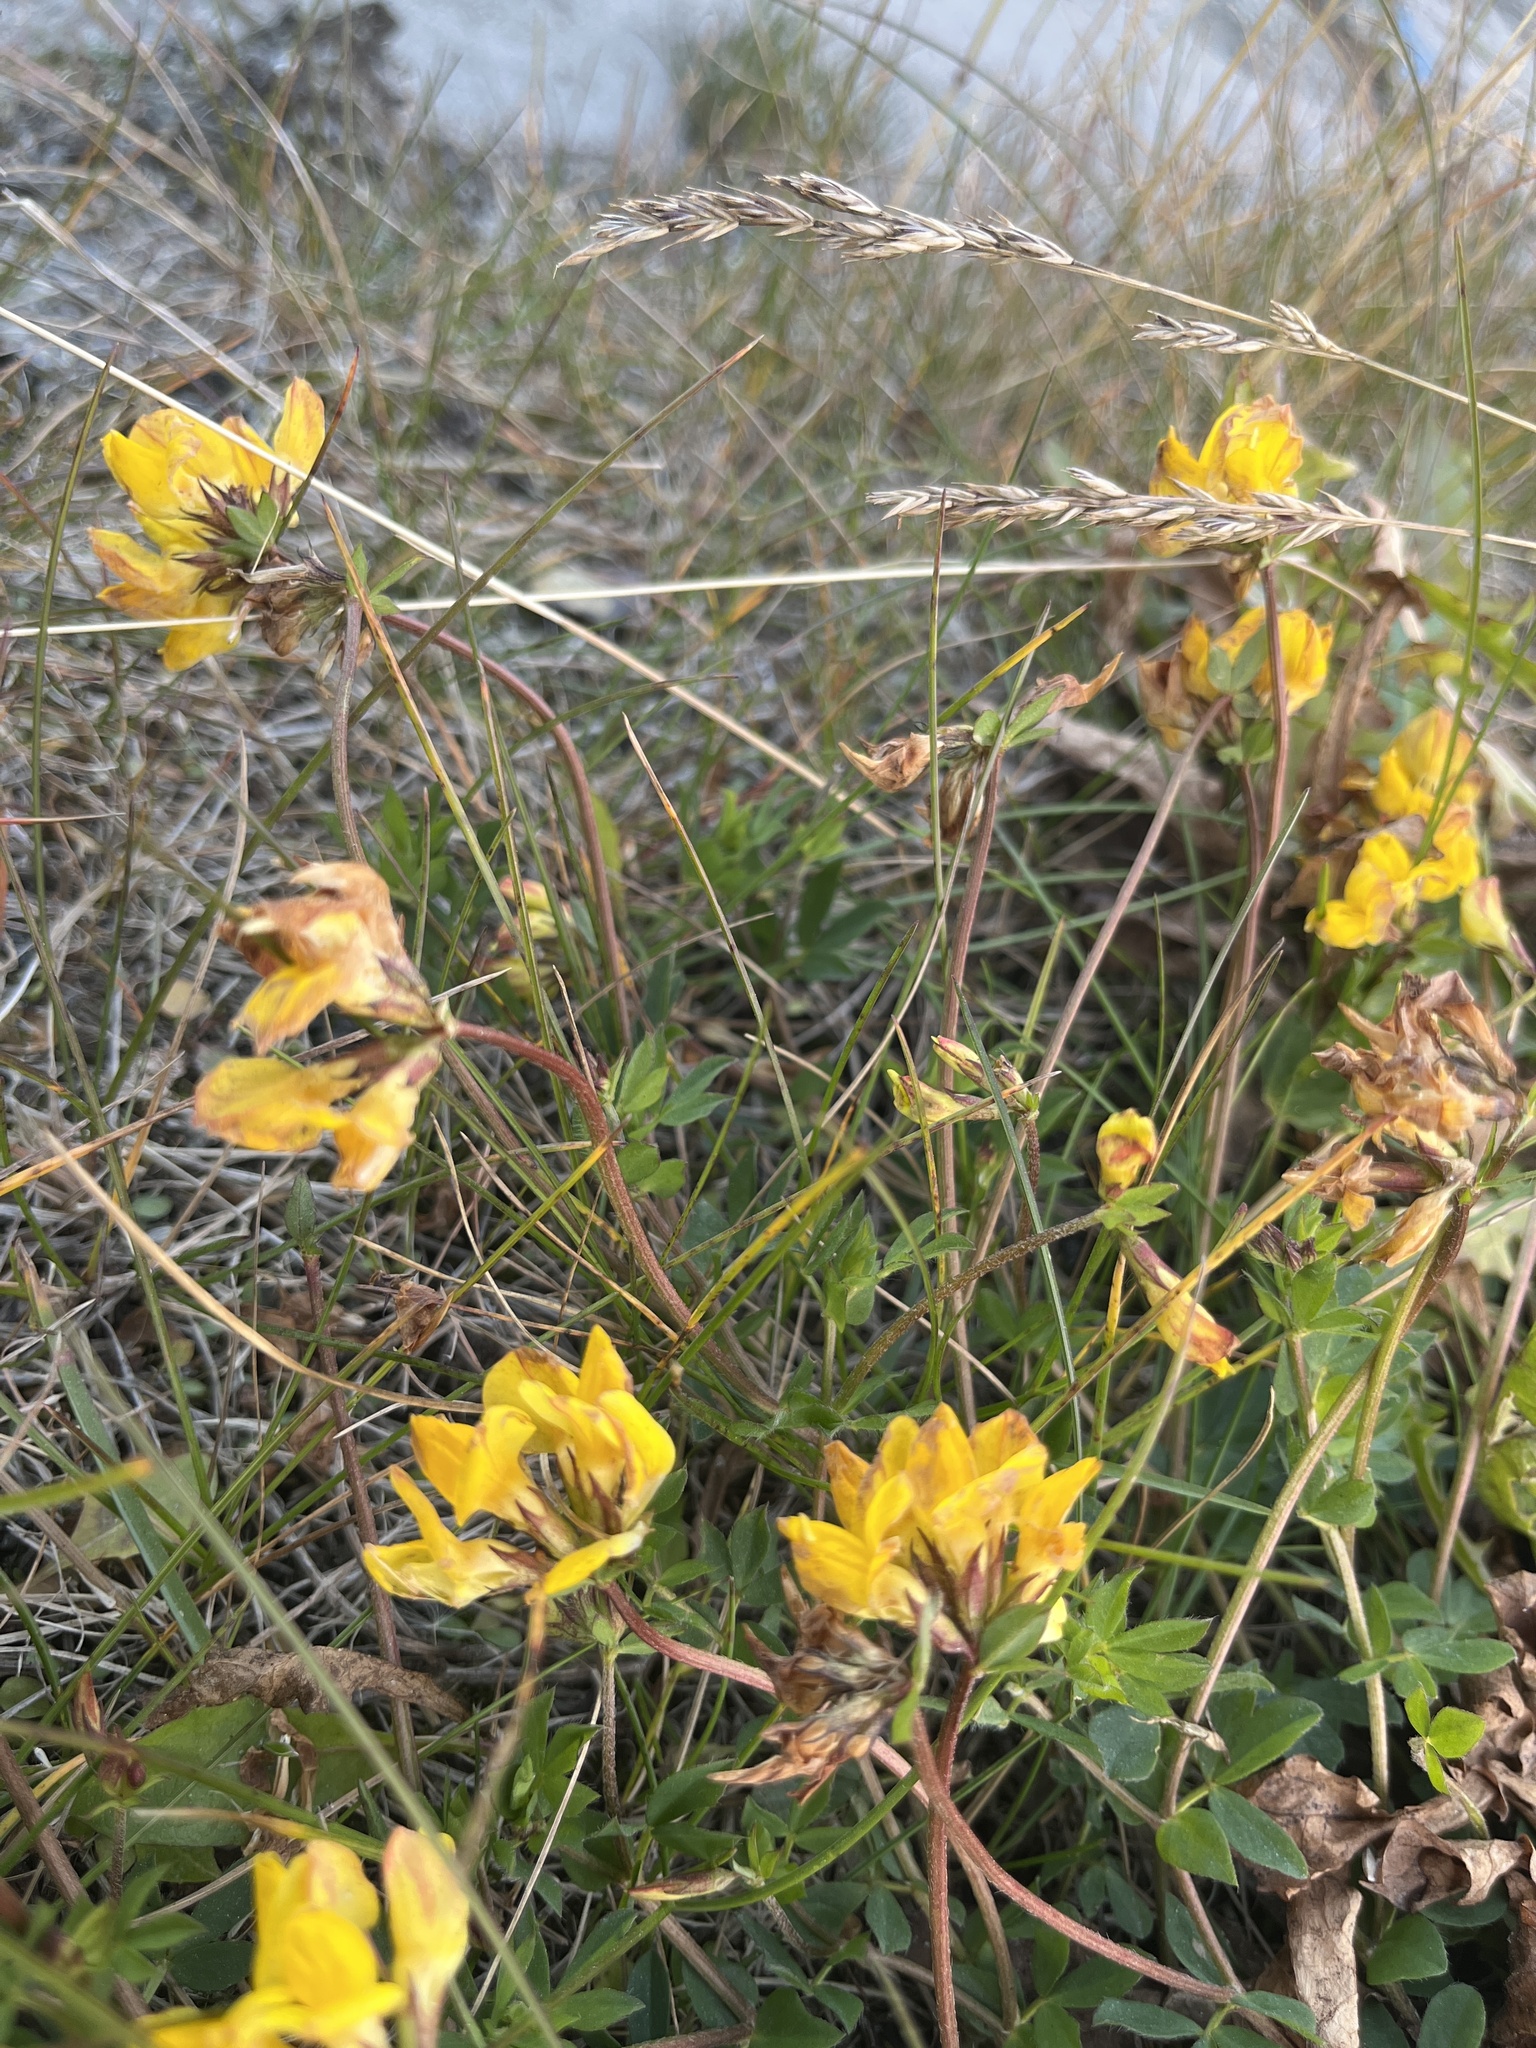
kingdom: Plantae
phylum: Tracheophyta
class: Magnoliopsida
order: Fabales
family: Fabaceae
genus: Lotus
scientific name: Lotus corniculatus
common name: Common bird's-foot-trefoil
